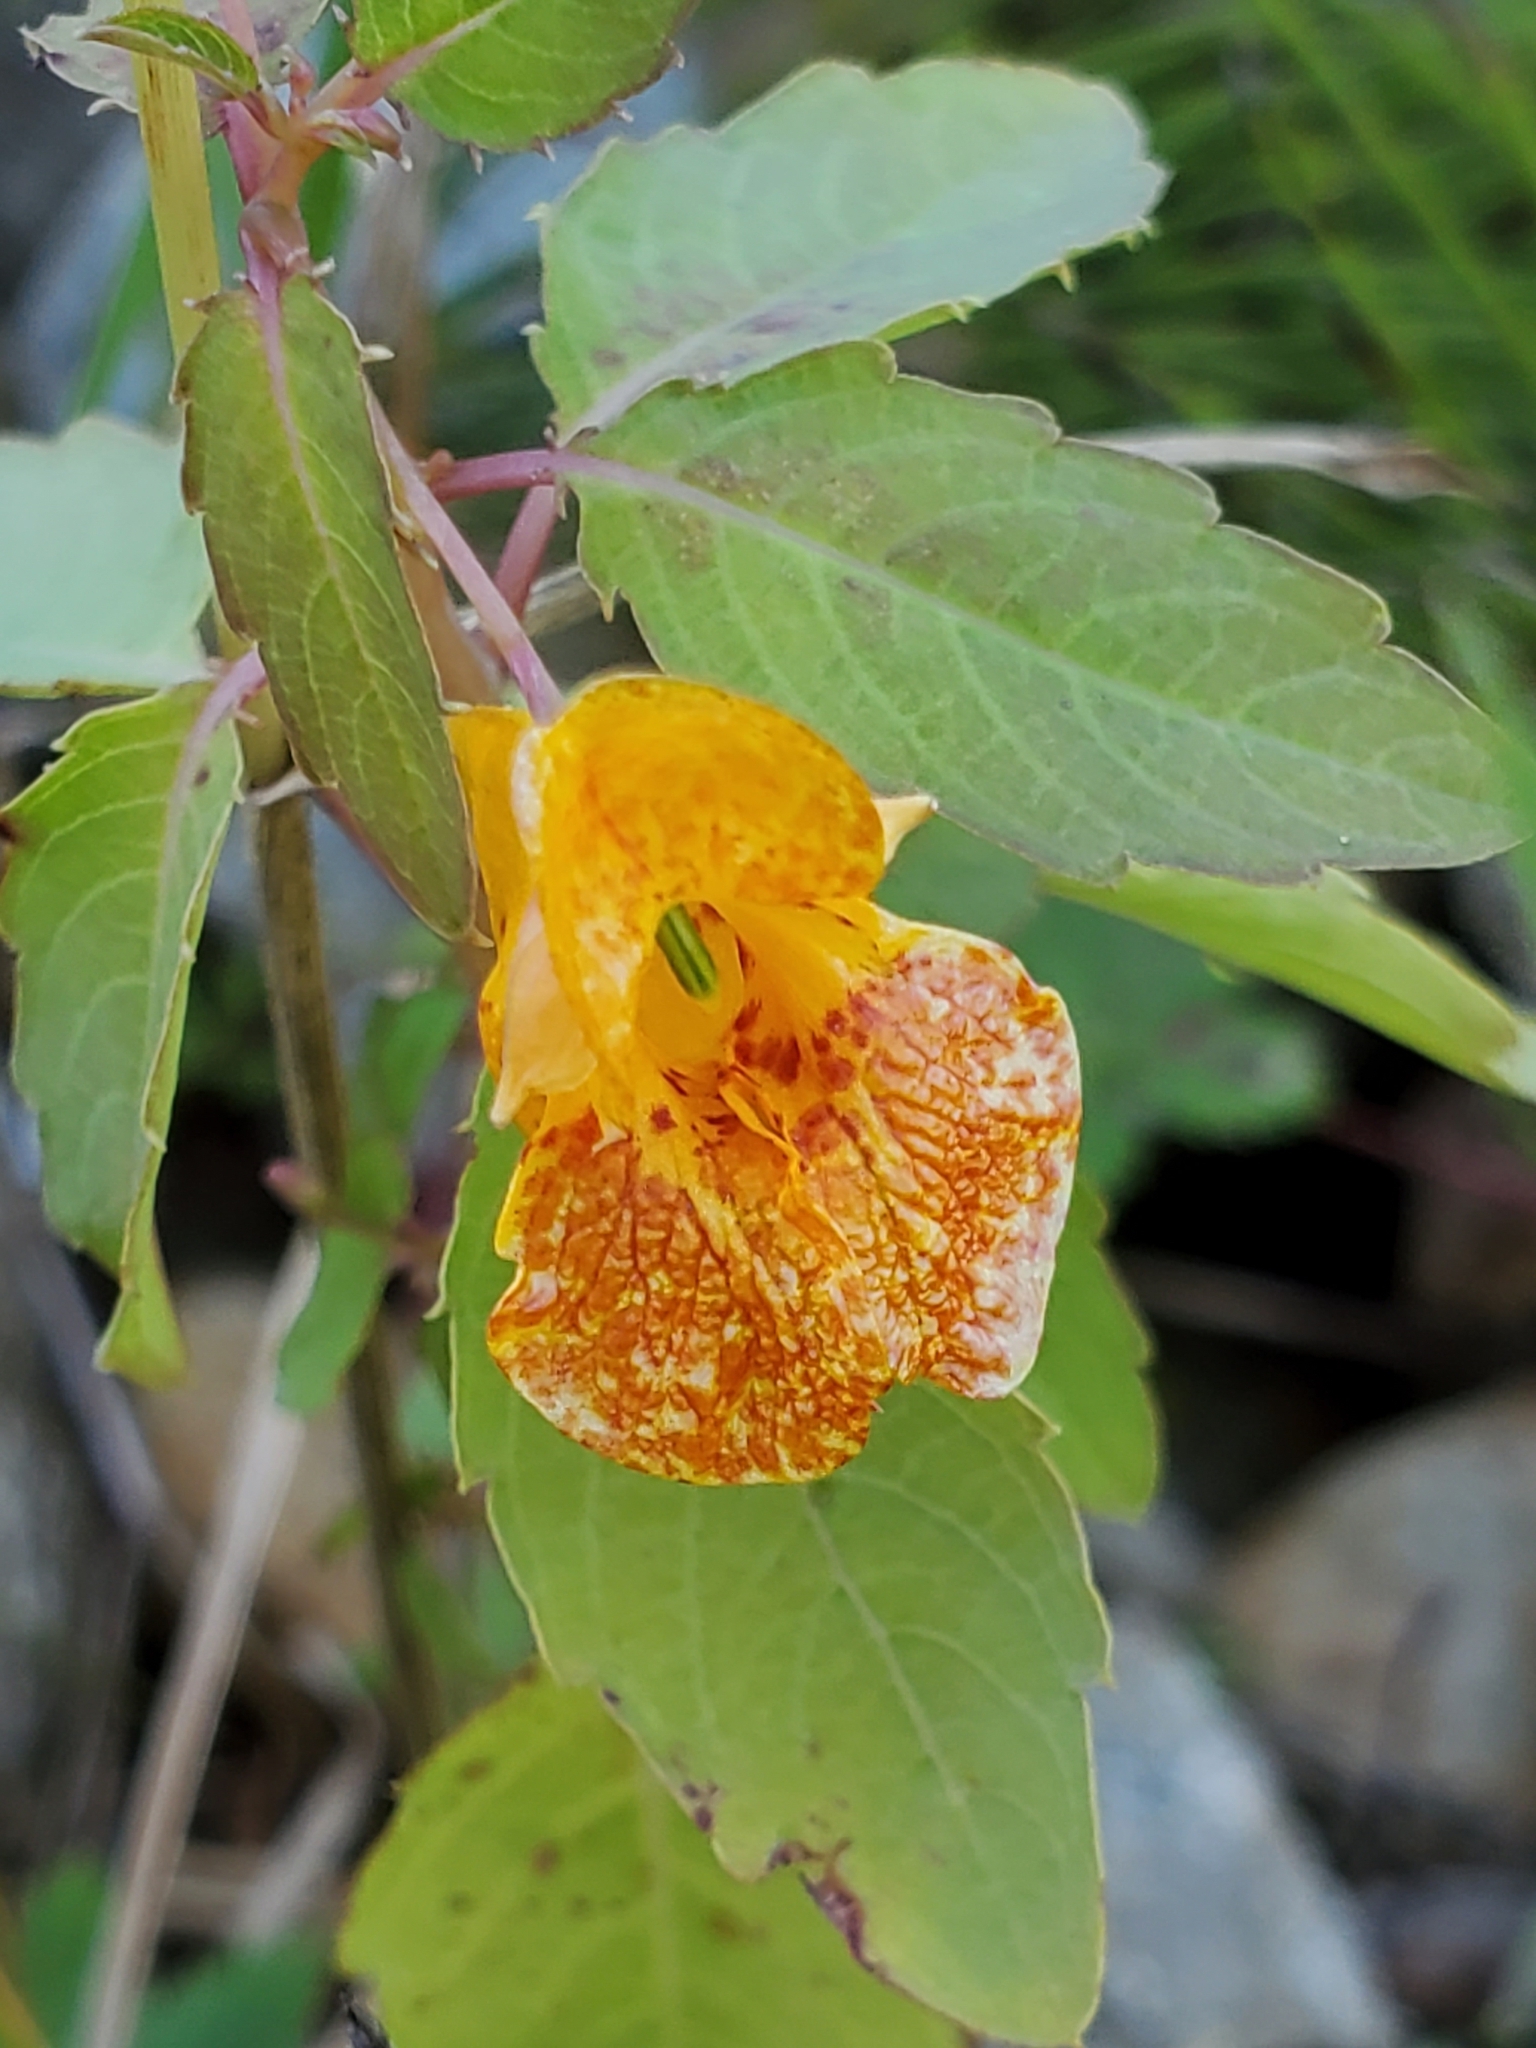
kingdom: Plantae
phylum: Tracheophyta
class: Magnoliopsida
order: Ericales
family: Balsaminaceae
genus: Impatiens
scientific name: Impatiens capensis
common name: Orange balsam
